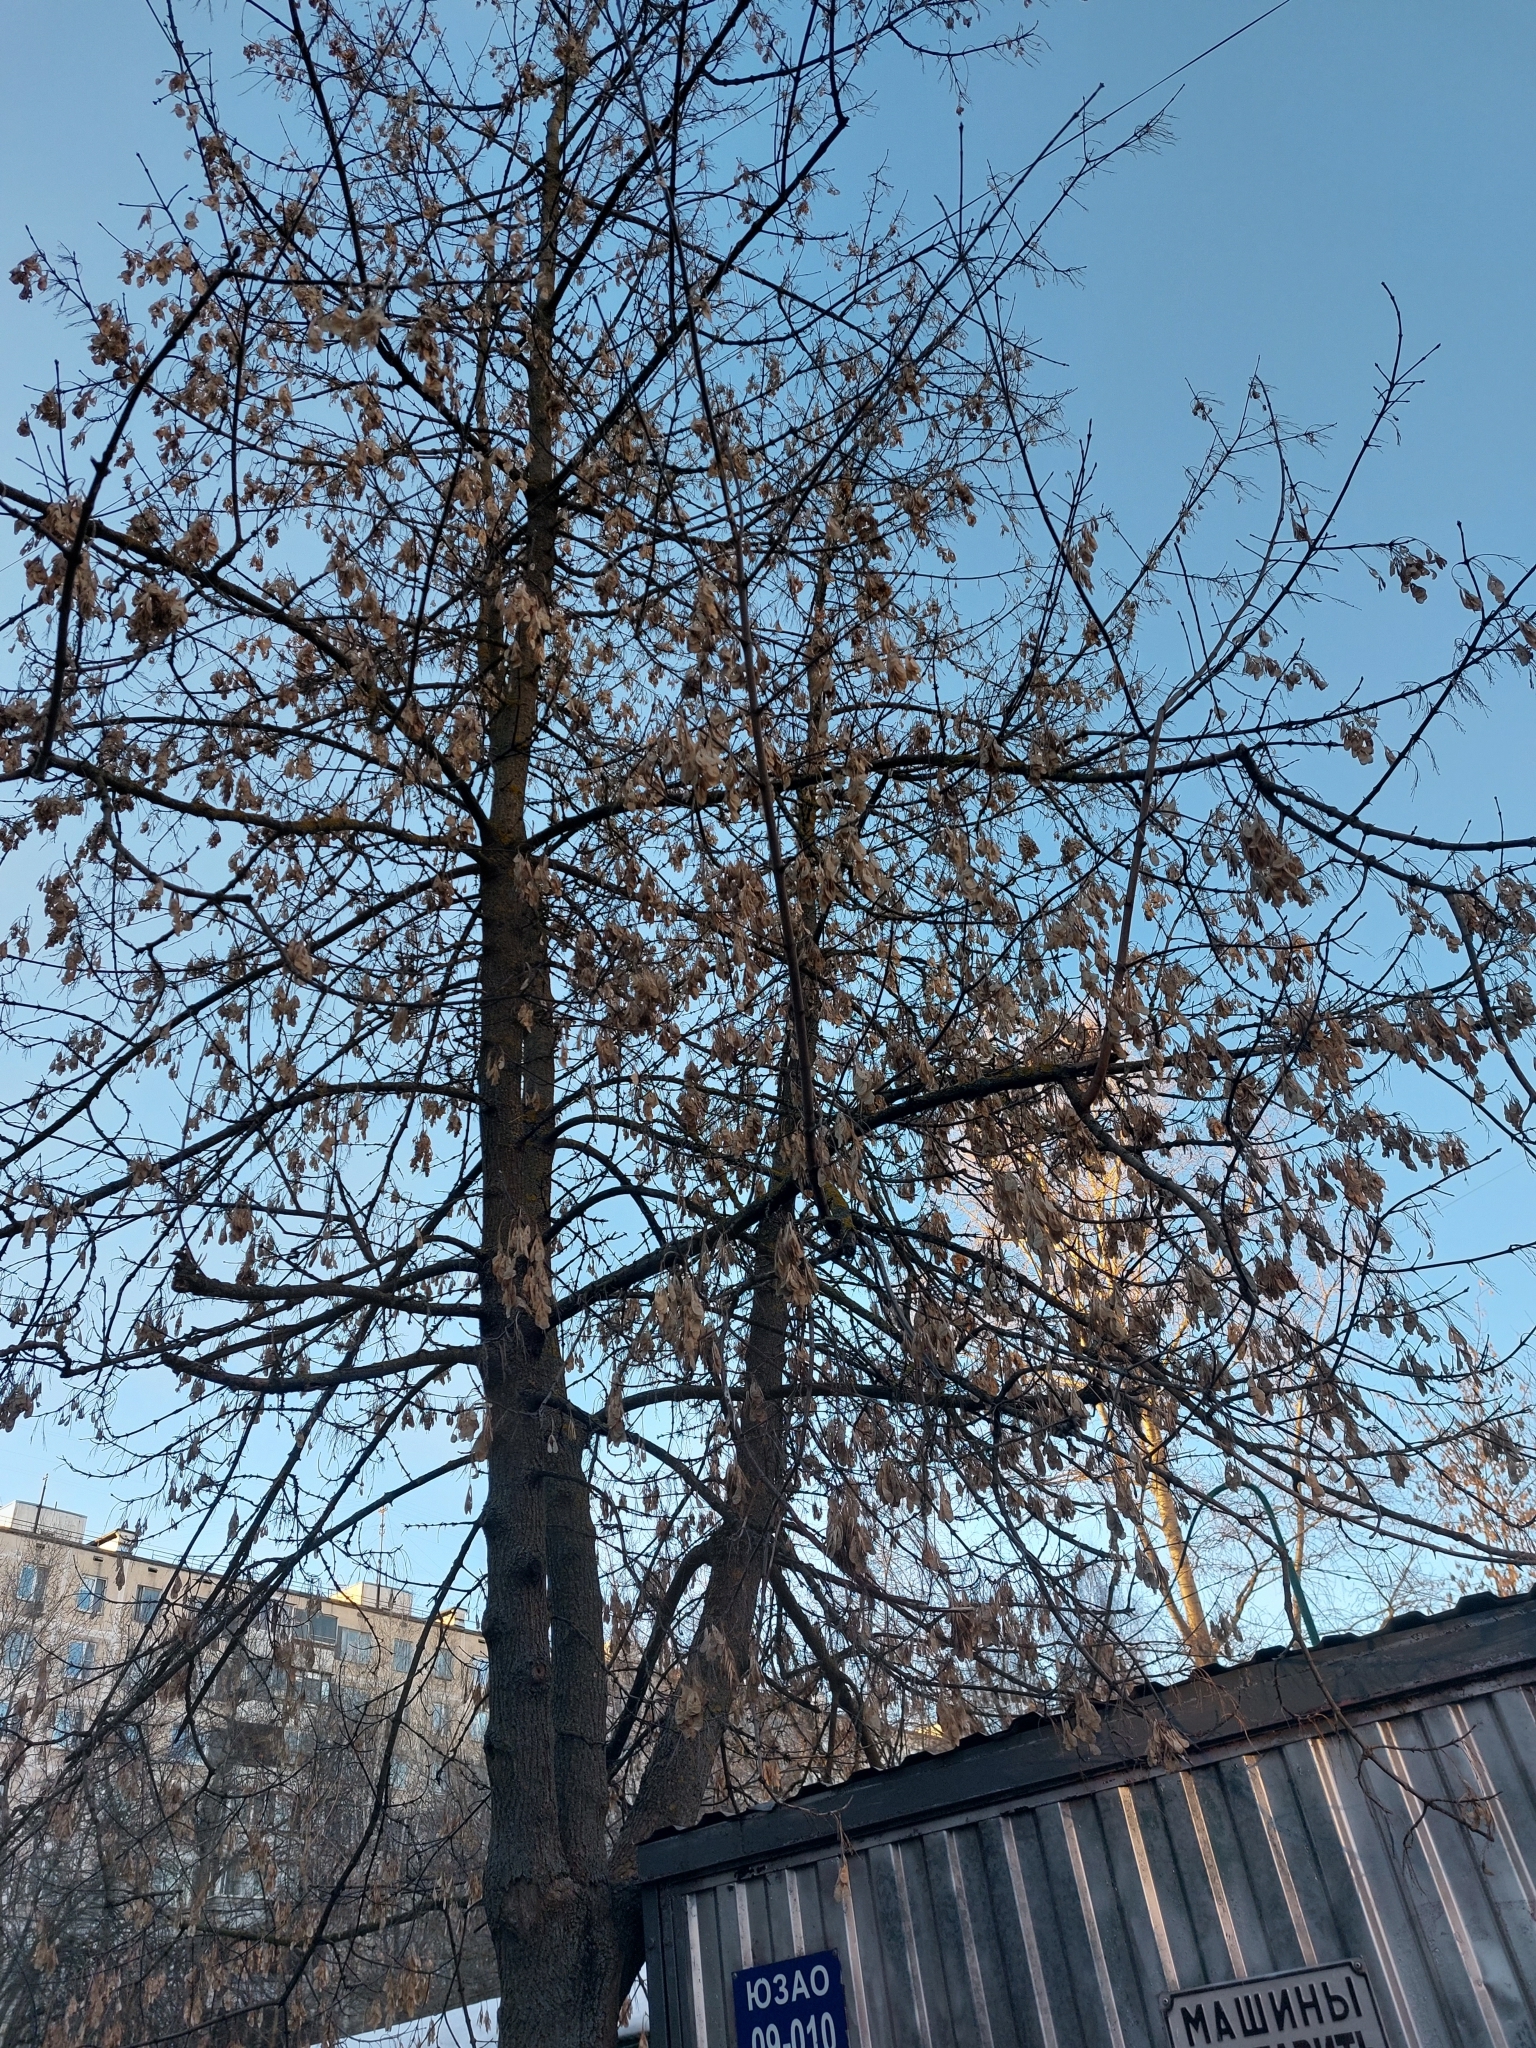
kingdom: Plantae
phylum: Tracheophyta
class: Magnoliopsida
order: Sapindales
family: Sapindaceae
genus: Acer
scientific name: Acer negundo
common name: Ashleaf maple
